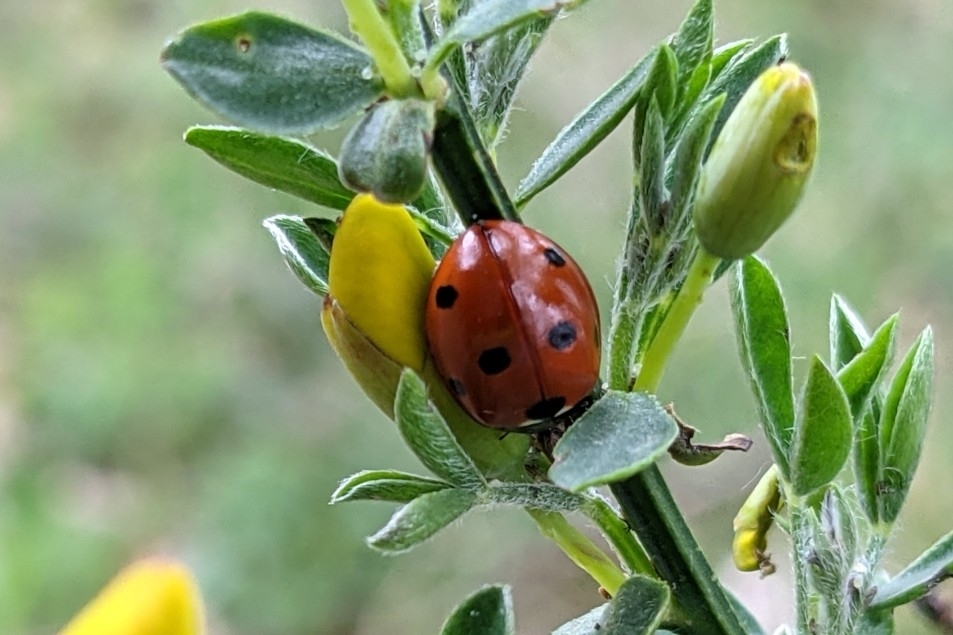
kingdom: Animalia
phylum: Arthropoda
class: Insecta
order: Coleoptera
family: Coccinellidae
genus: Coccinella
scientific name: Coccinella septempunctata
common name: Sevenspotted lady beetle
